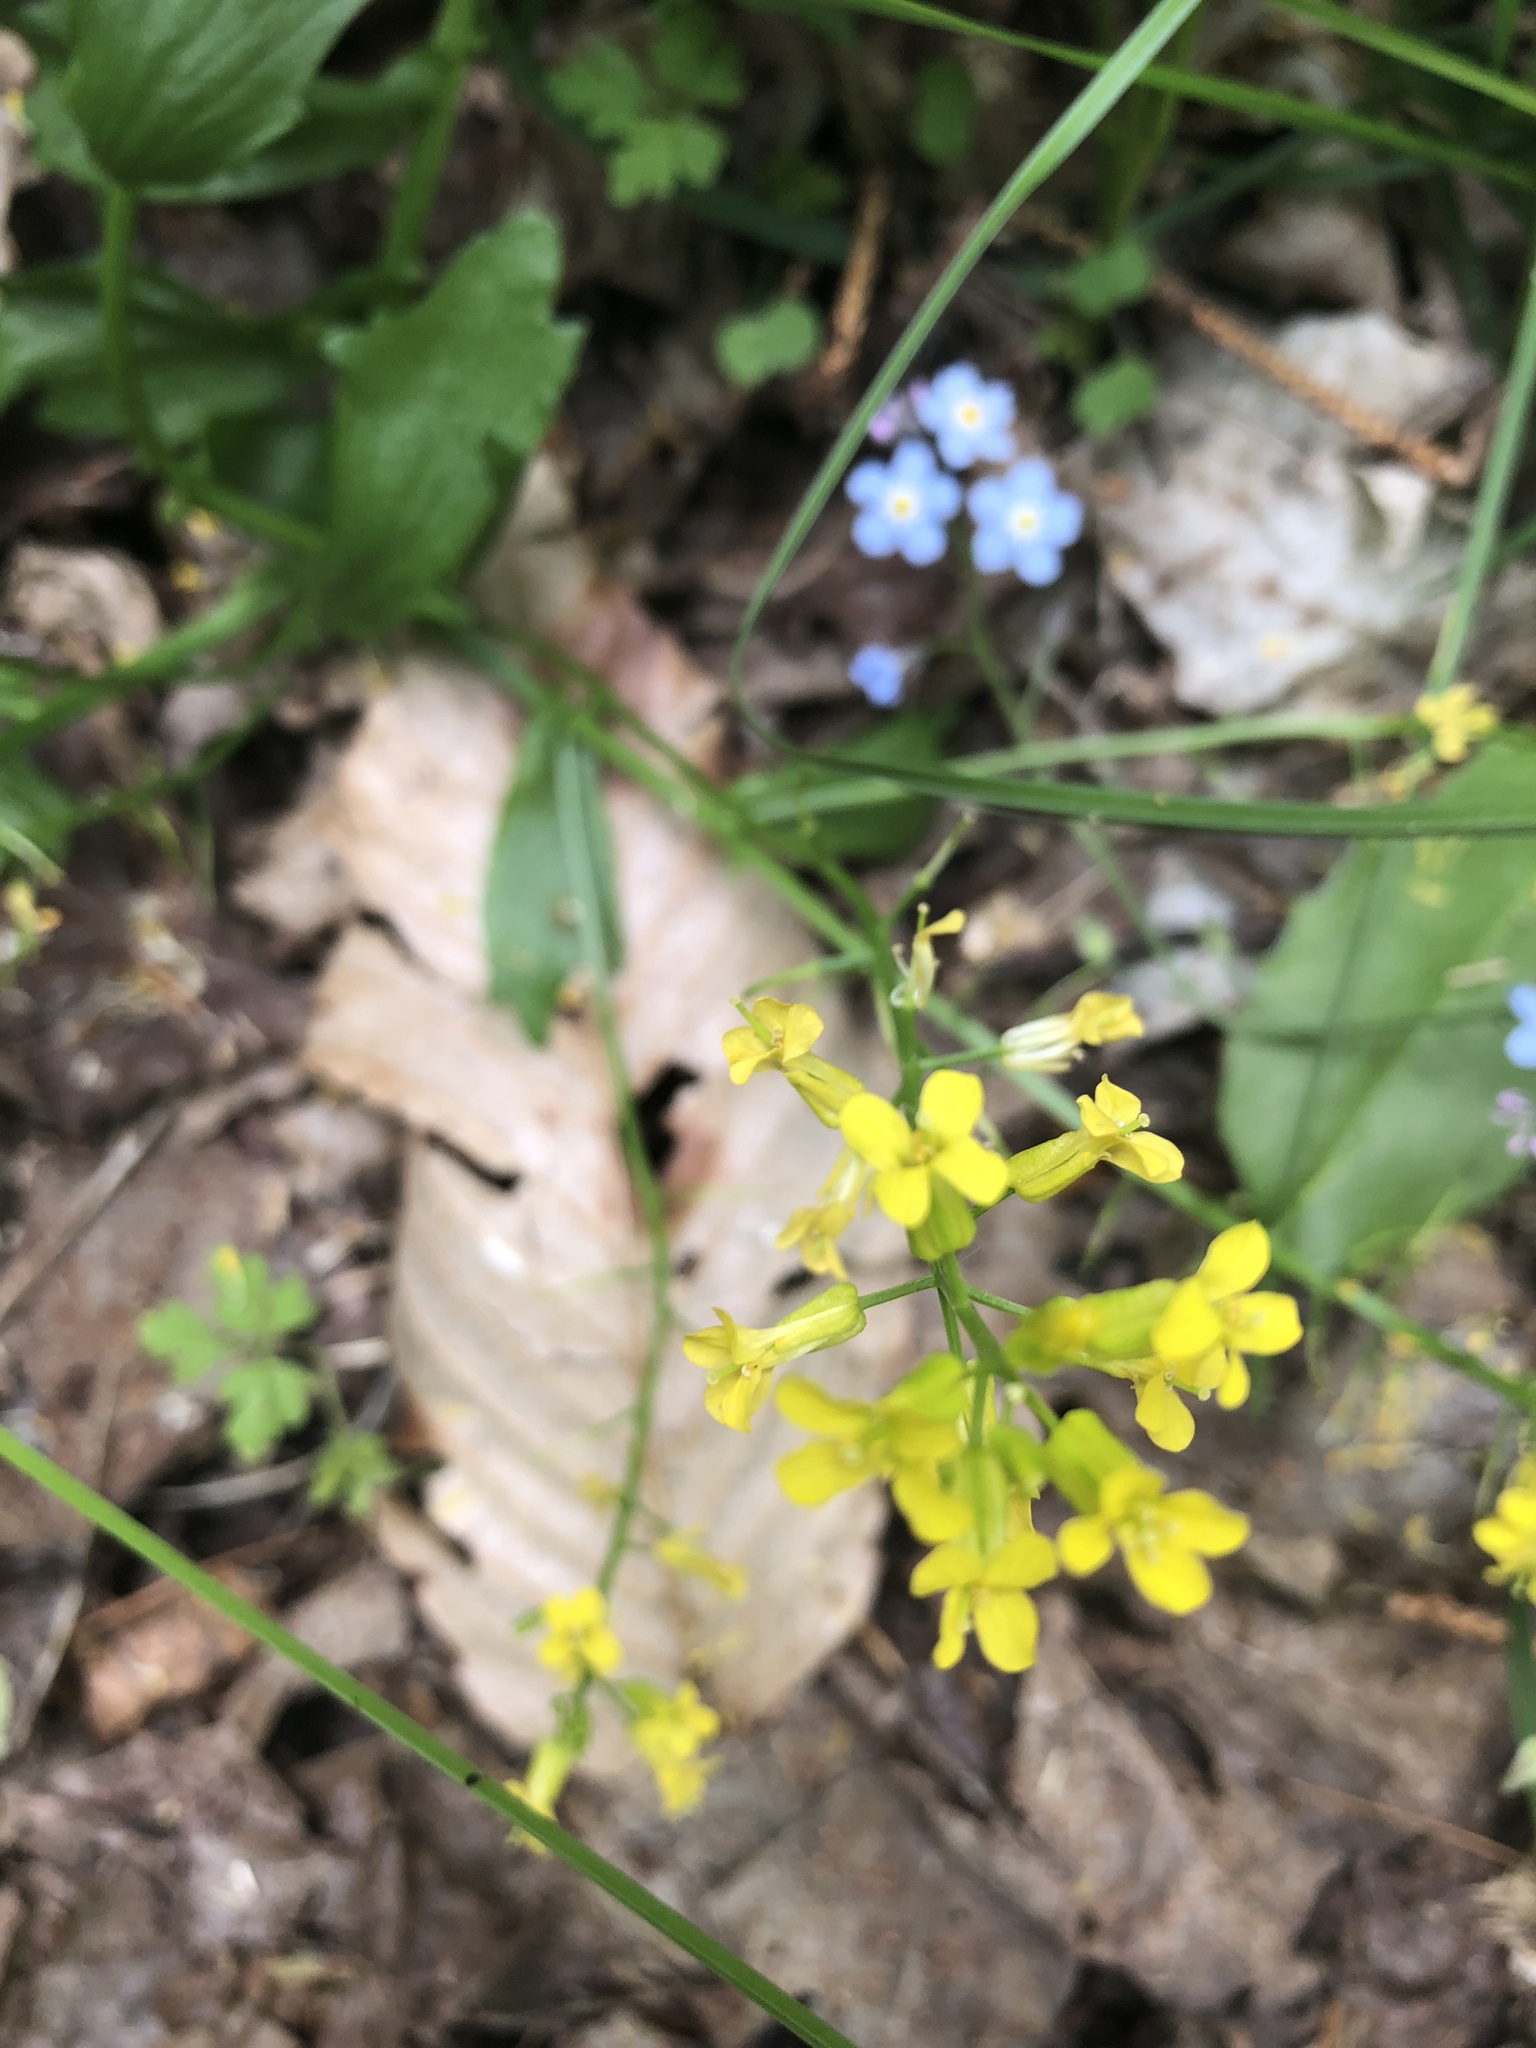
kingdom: Plantae
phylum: Tracheophyta
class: Magnoliopsida
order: Brassicales
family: Brassicaceae
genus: Barbarea
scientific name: Barbarea vulgaris
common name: Cressy-greens
